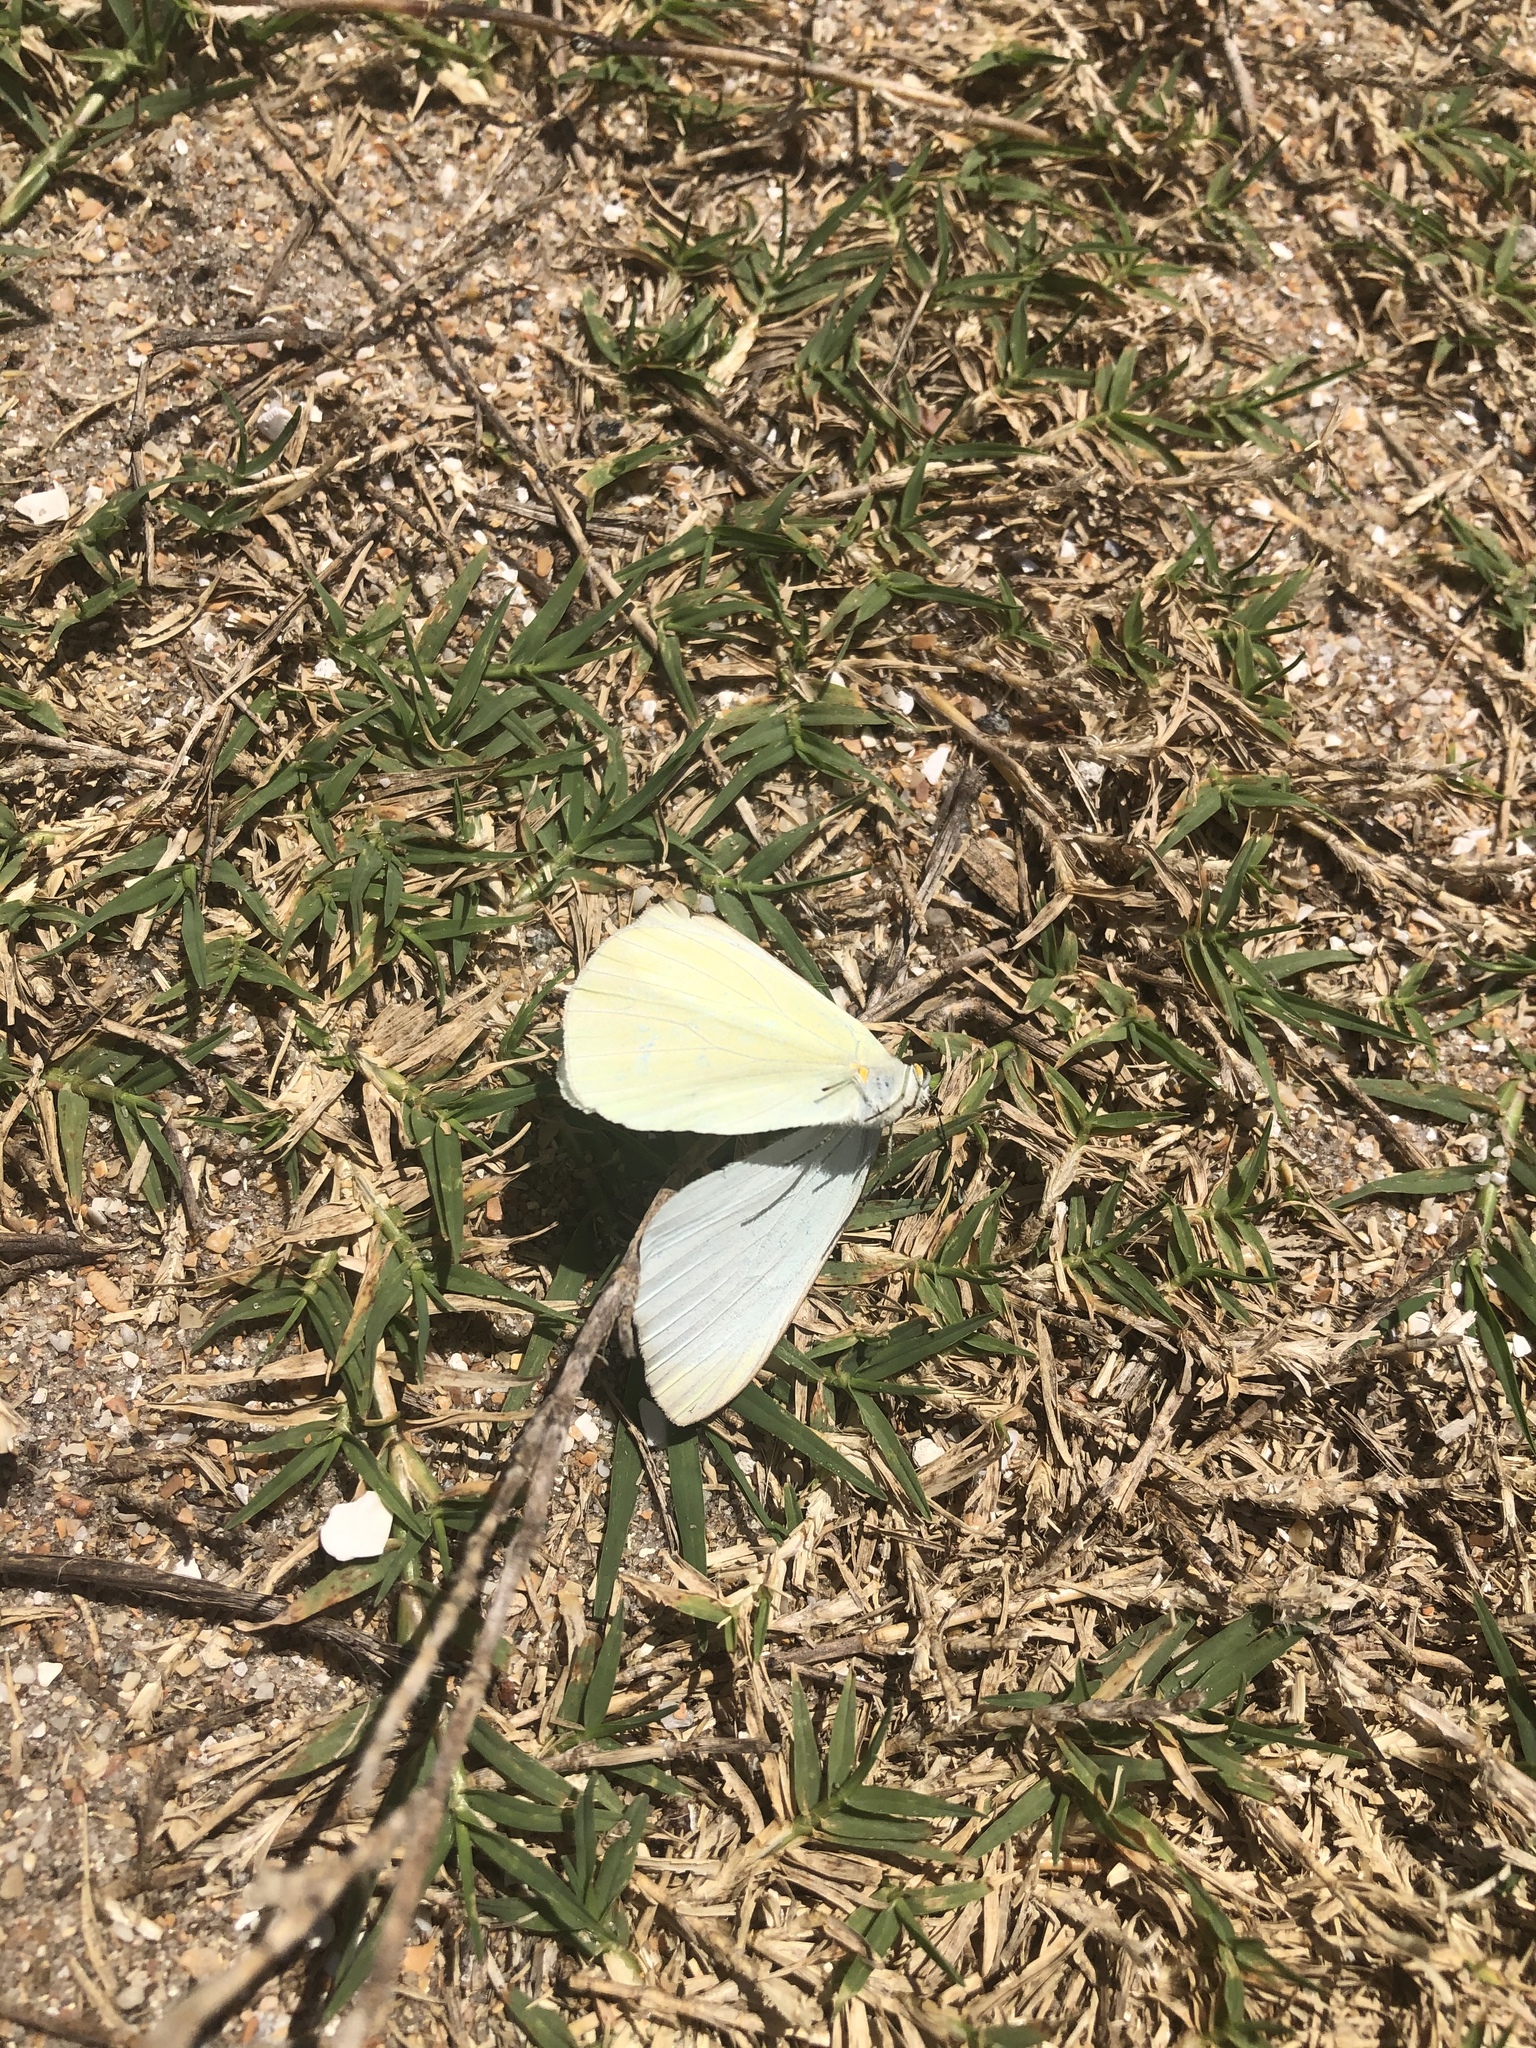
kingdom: Animalia
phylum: Arthropoda
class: Insecta
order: Lepidoptera
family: Pieridae
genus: Ascia
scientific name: Ascia monuste
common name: Great southern white
